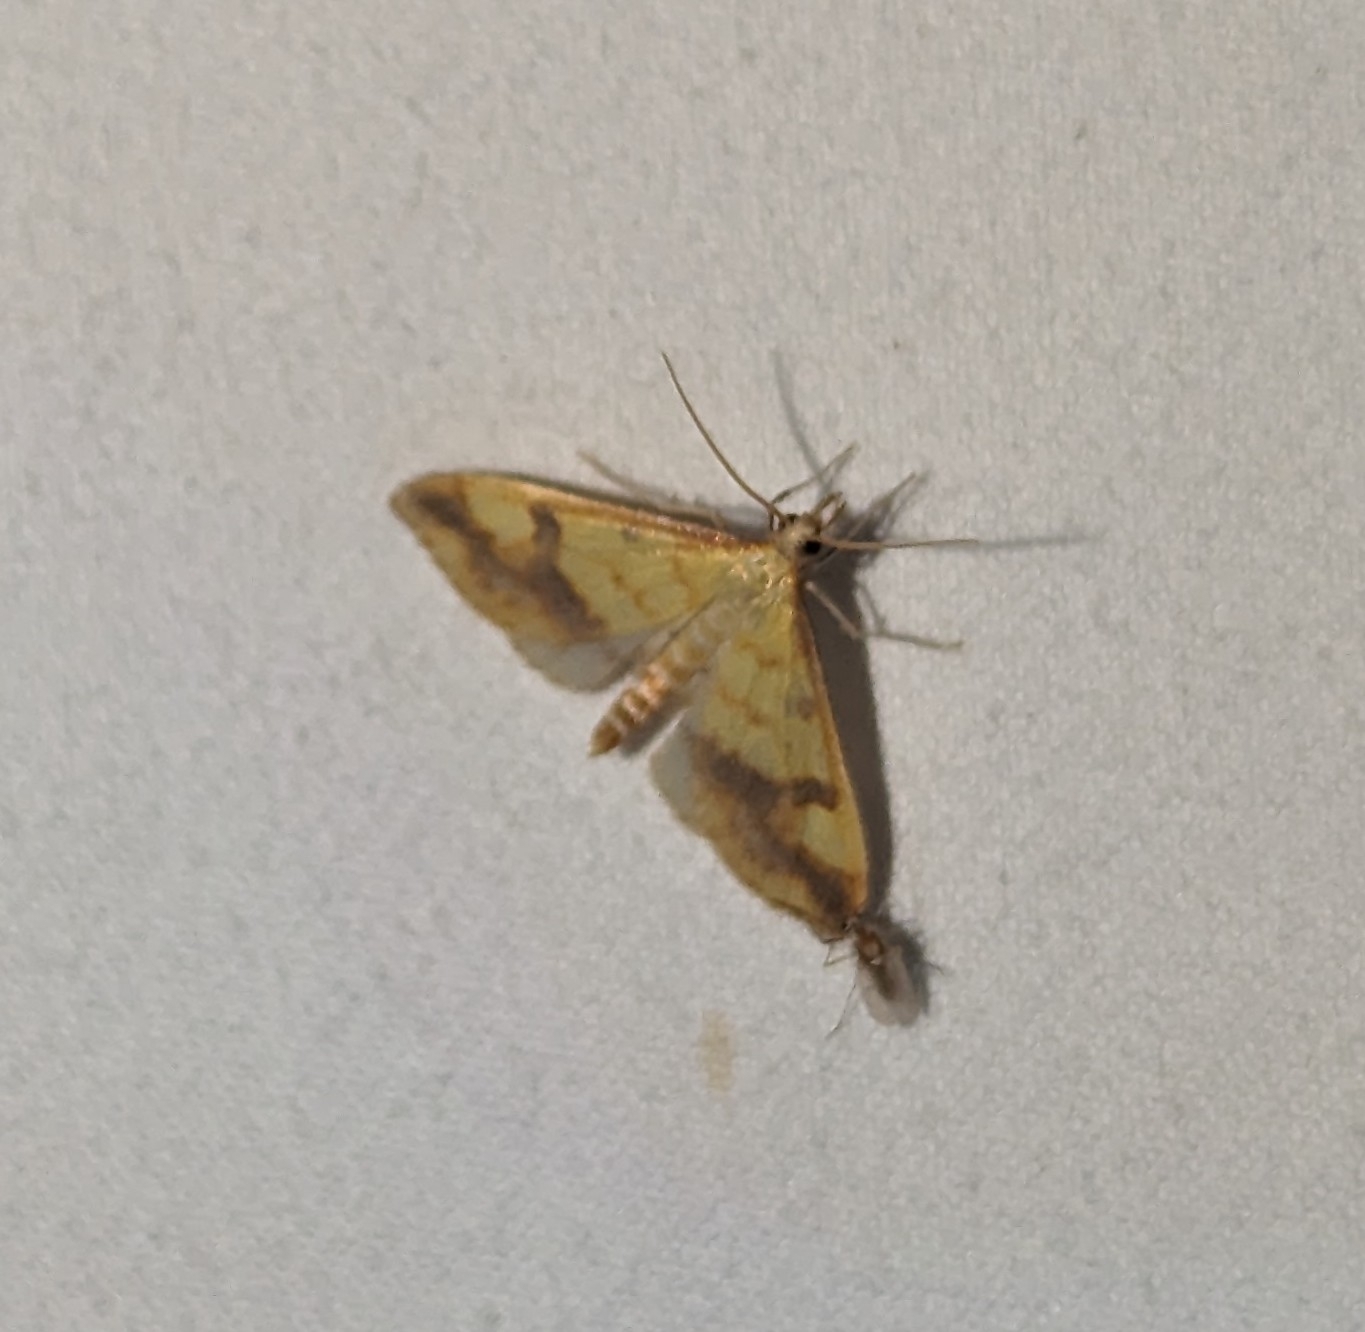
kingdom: Animalia
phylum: Arthropoda
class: Insecta
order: Lepidoptera
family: Crambidae
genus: Choristostigma
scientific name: Choristostigma plumbosignalis
